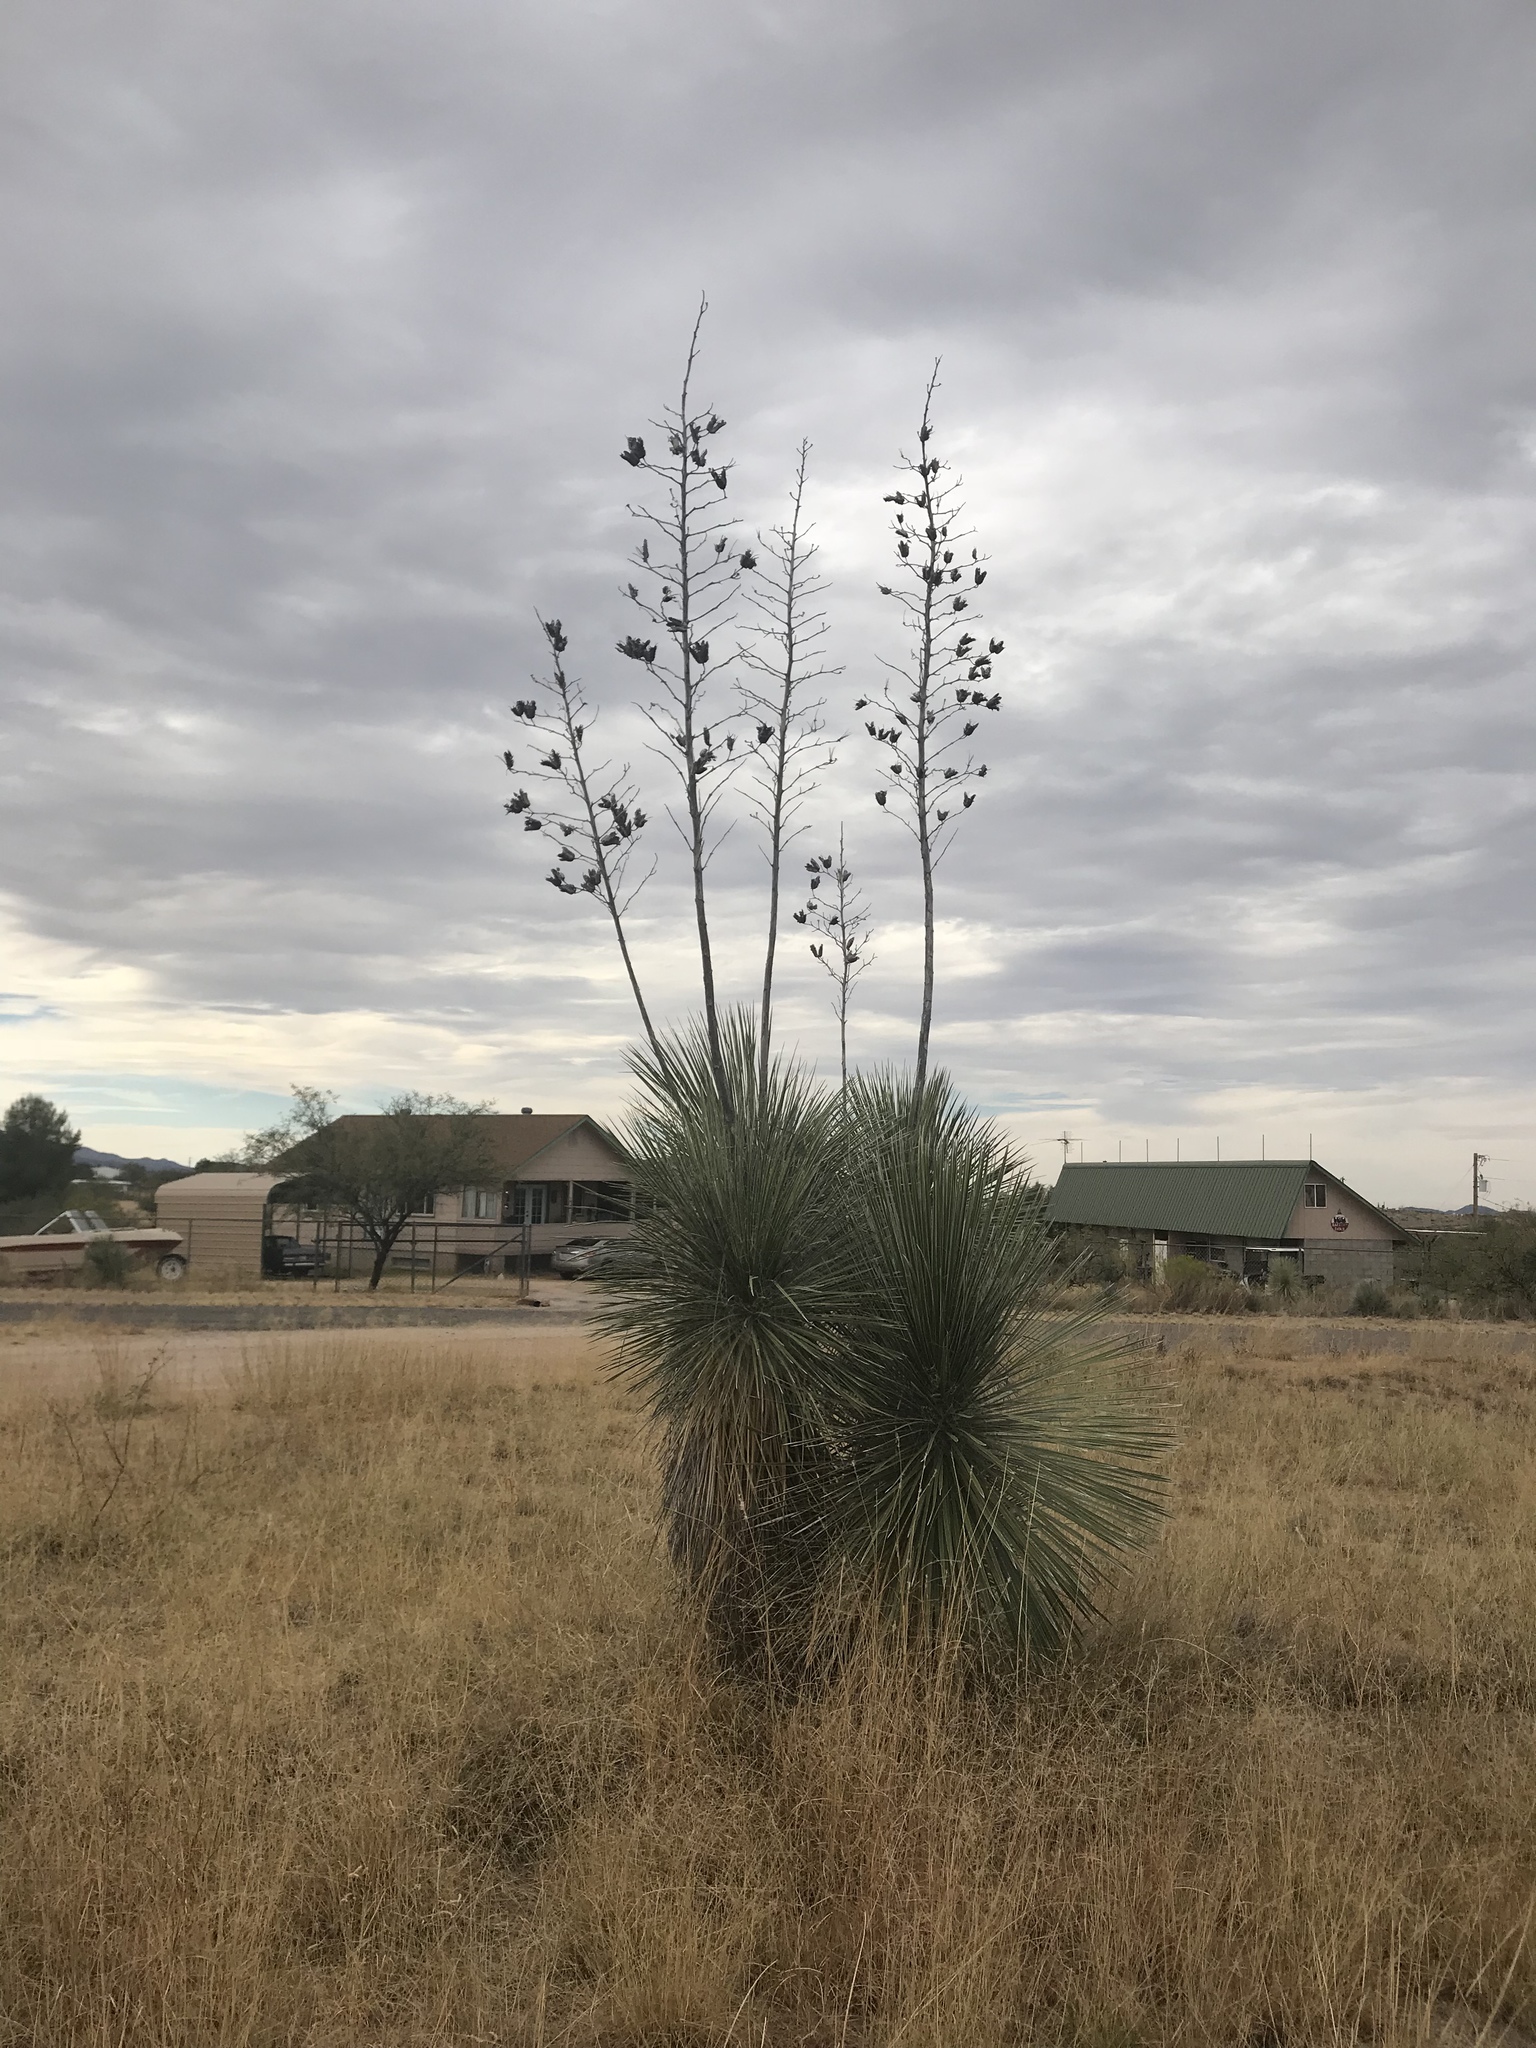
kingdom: Plantae
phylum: Tracheophyta
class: Liliopsida
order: Asparagales
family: Asparagaceae
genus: Yucca
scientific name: Yucca elata
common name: Palmella
